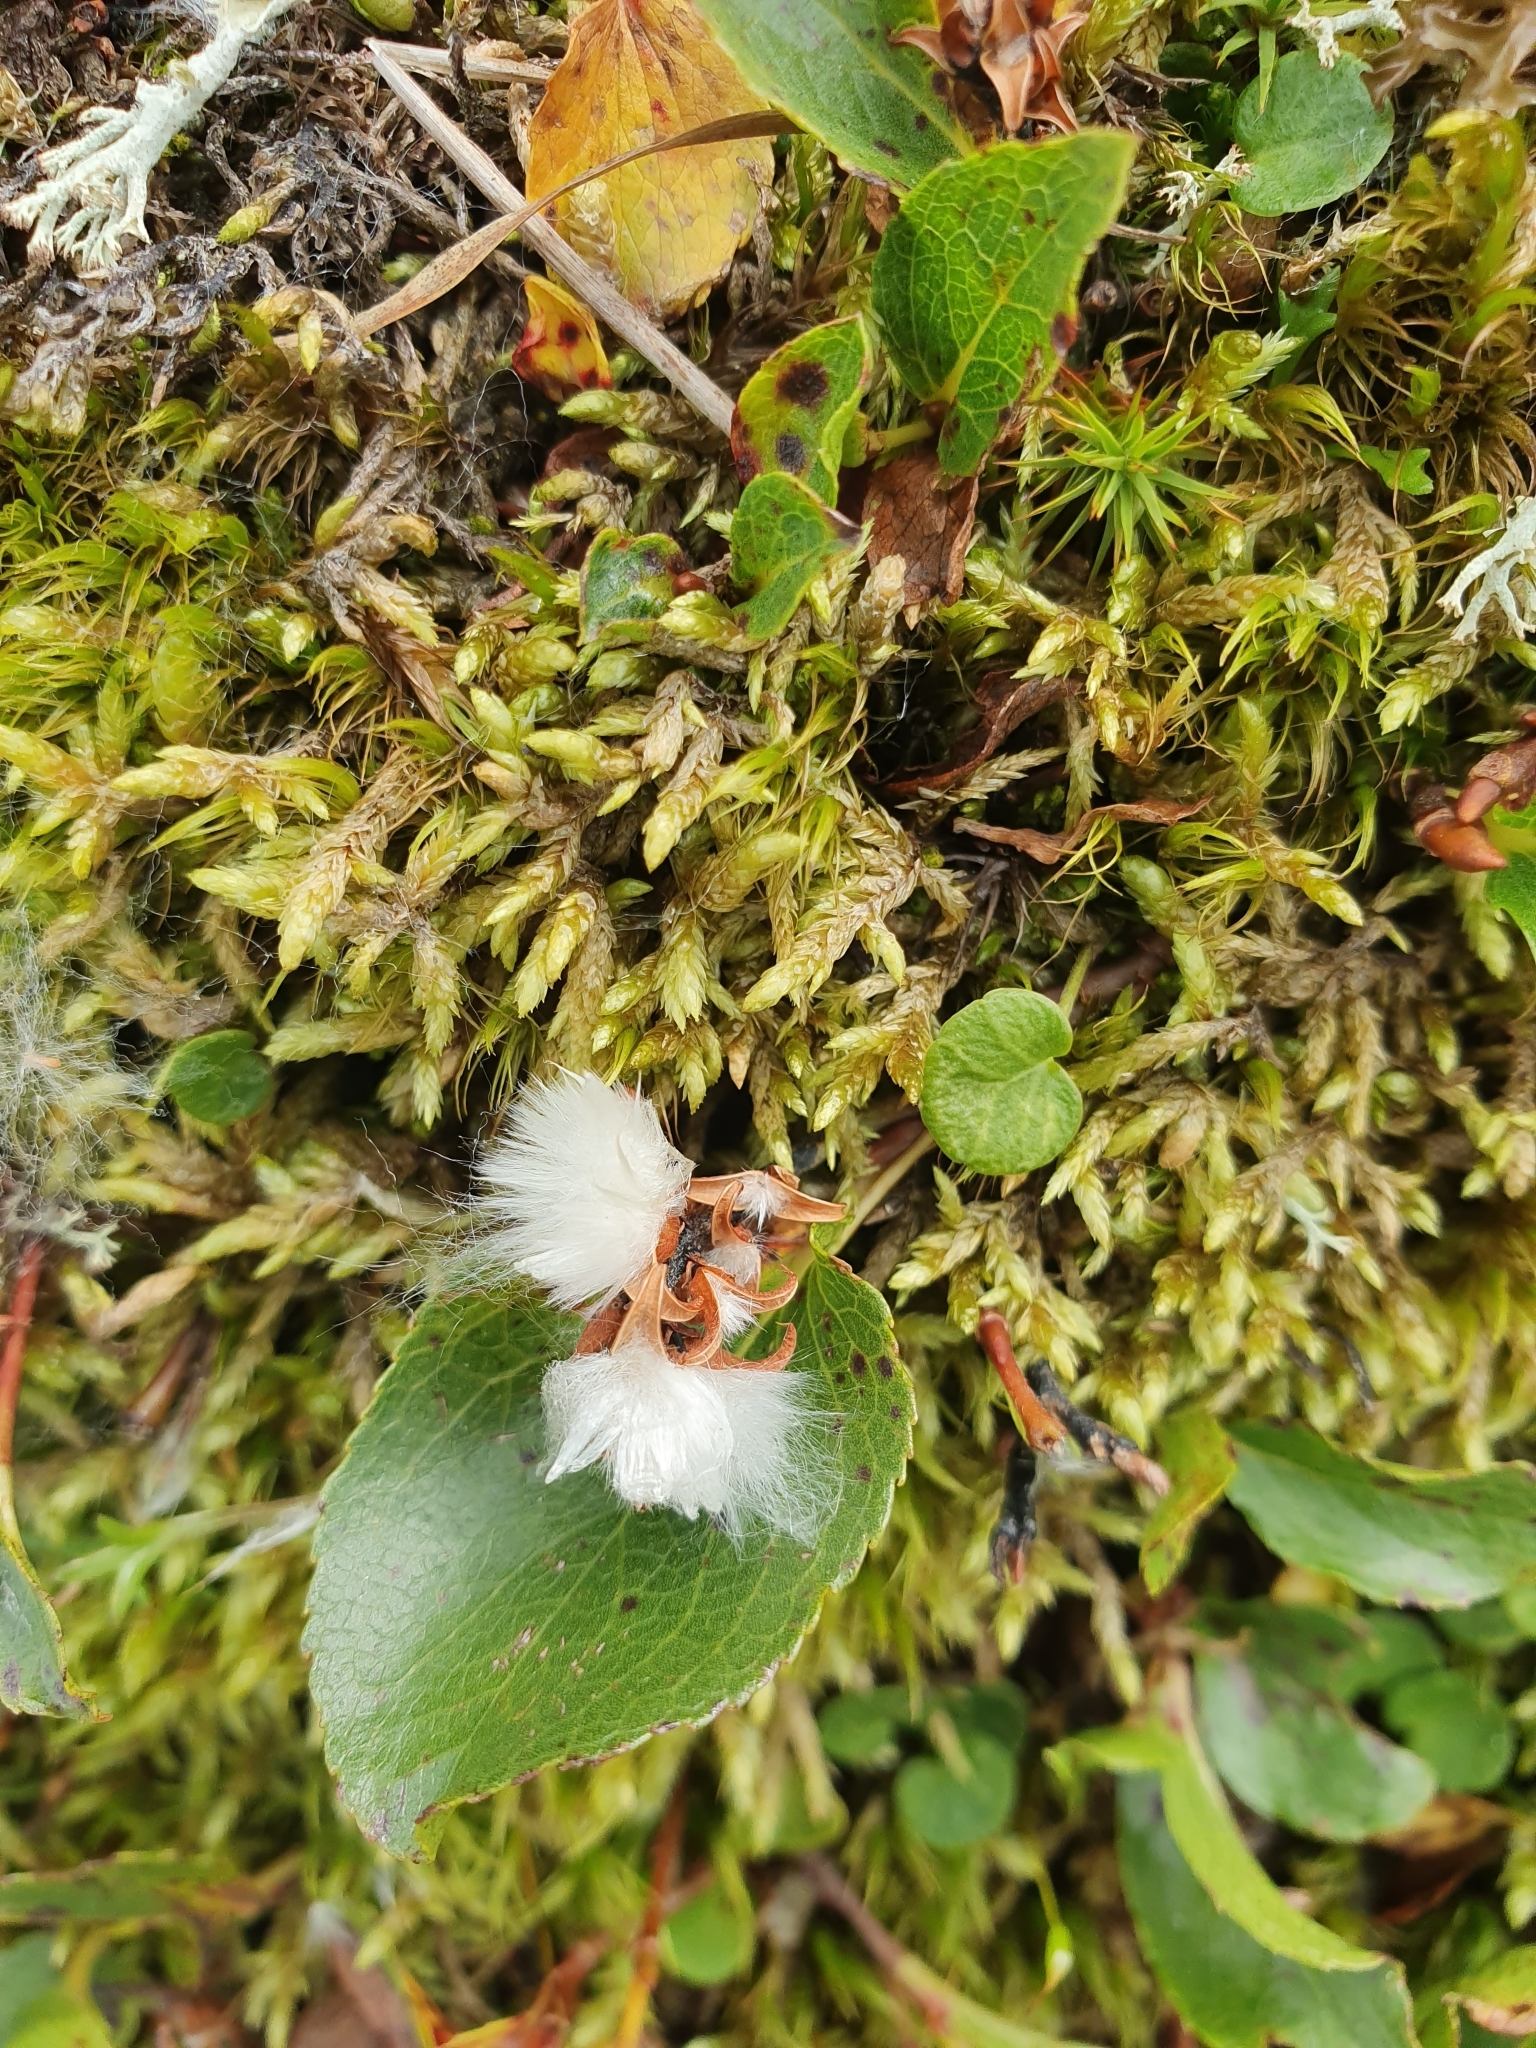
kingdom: Plantae
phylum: Tracheophyta
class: Magnoliopsida
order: Malpighiales
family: Salicaceae
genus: Salix
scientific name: Salix herbacea
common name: Dwarf willow
